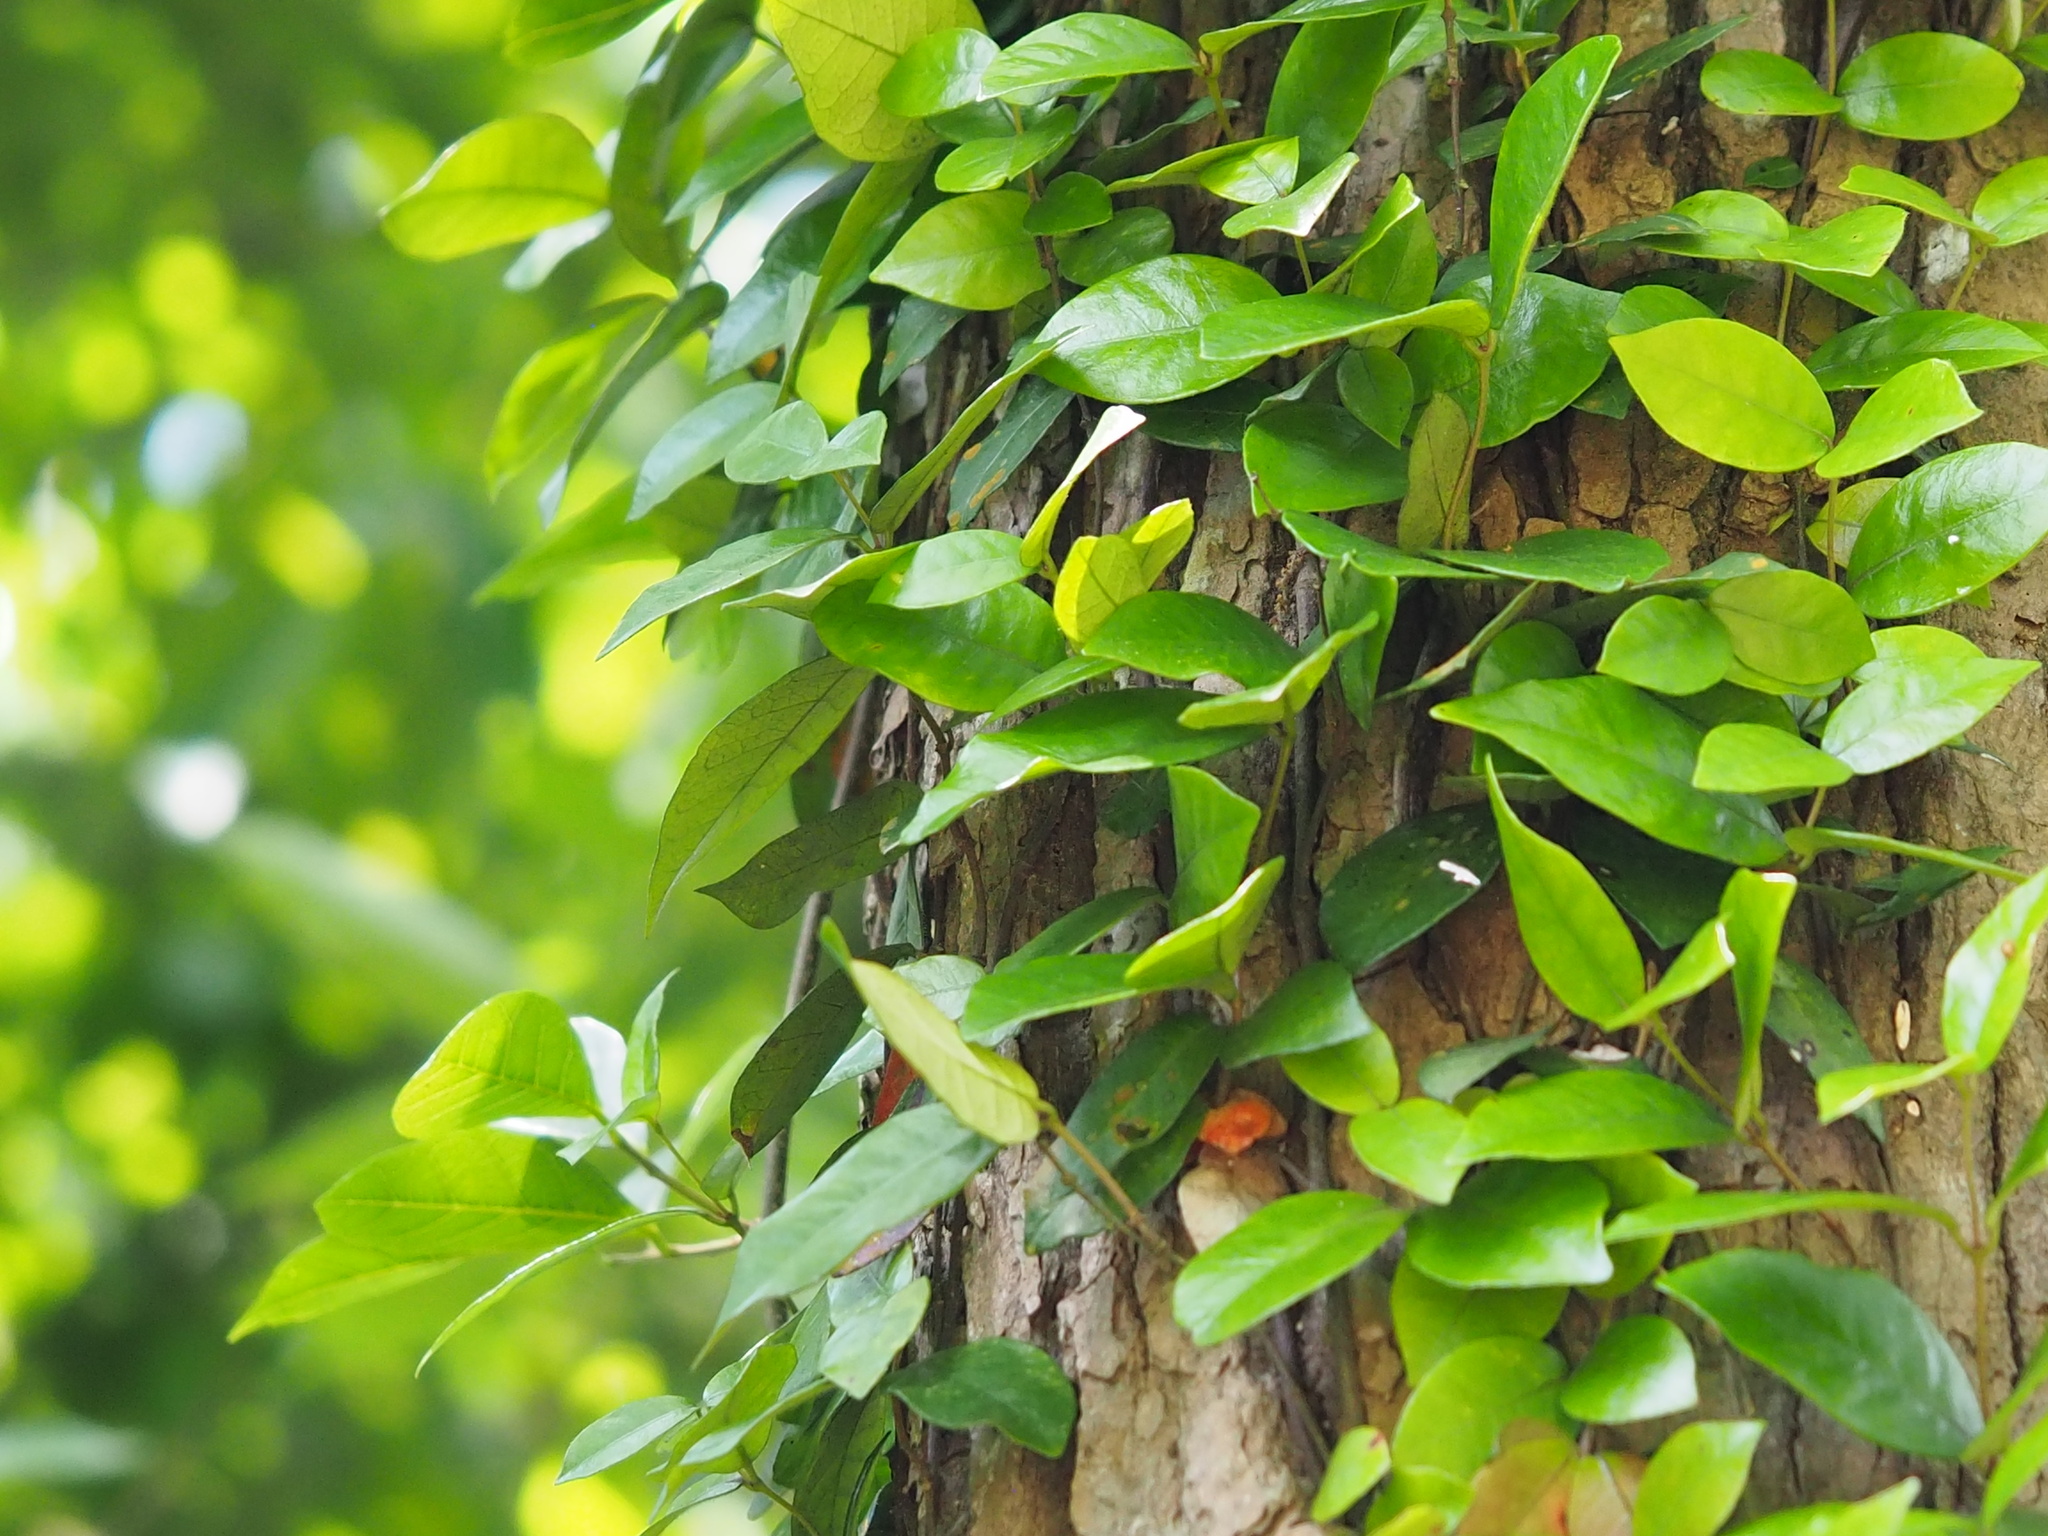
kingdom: Plantae
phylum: Tracheophyta
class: Magnoliopsida
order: Gentianales
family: Apocynaceae
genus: Trachelospermum
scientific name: Trachelospermum jasminoides
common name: Confederate jasmine
